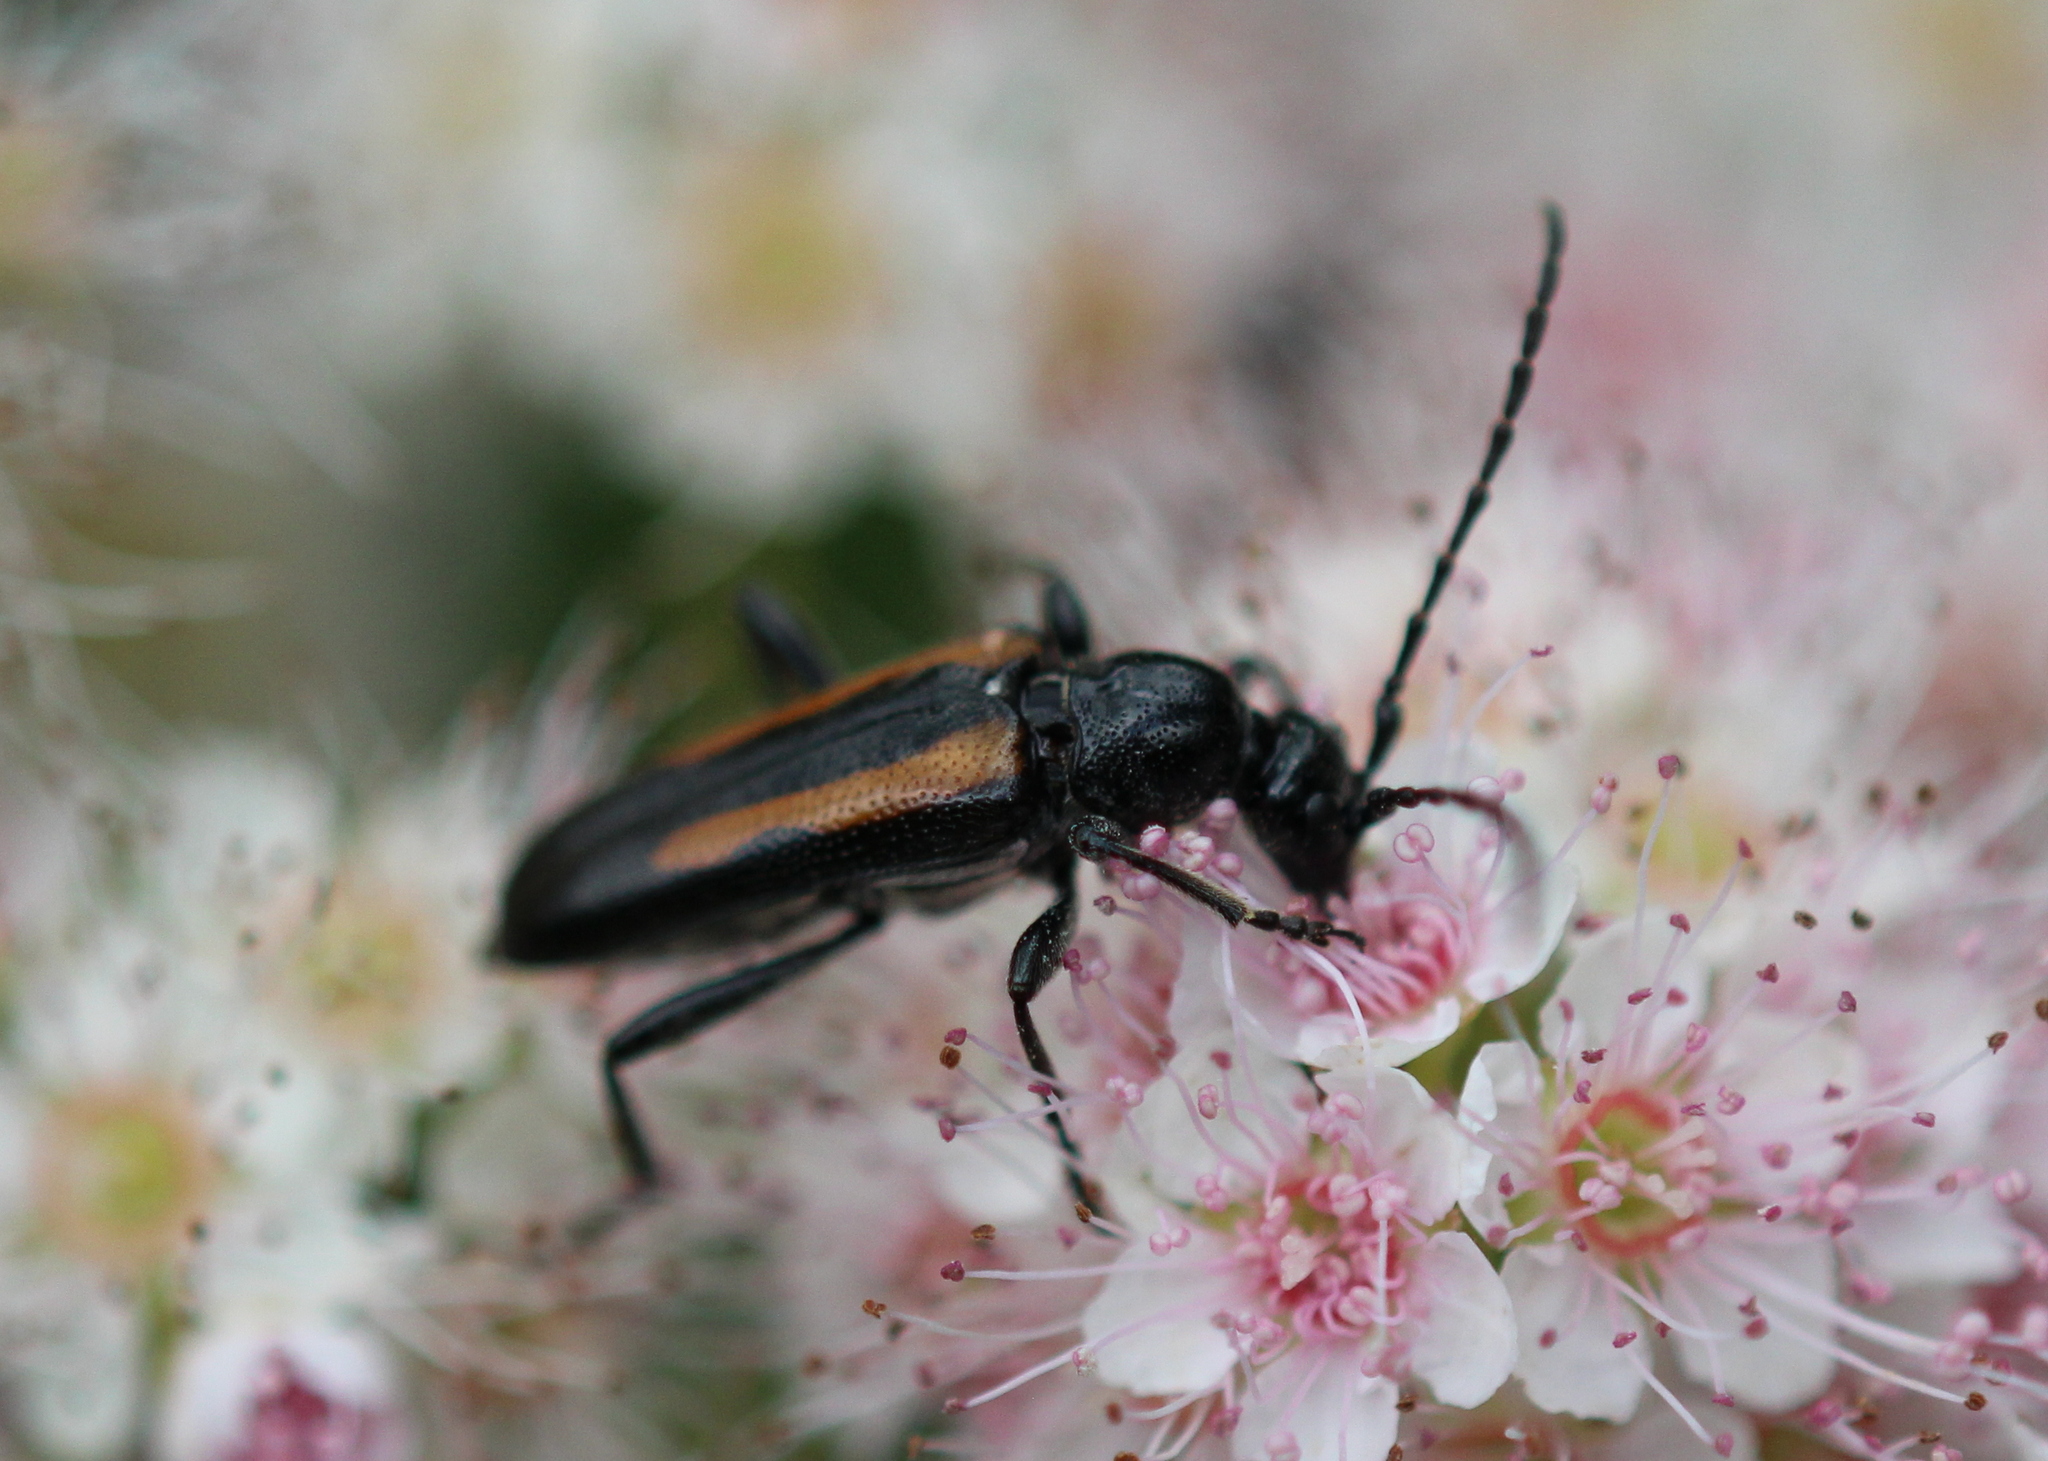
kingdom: Animalia
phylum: Arthropoda
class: Insecta
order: Coleoptera
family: Cerambycidae
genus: Strangalepta
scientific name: Strangalepta abbreviata
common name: Strangalepta flower longhorn beetle
